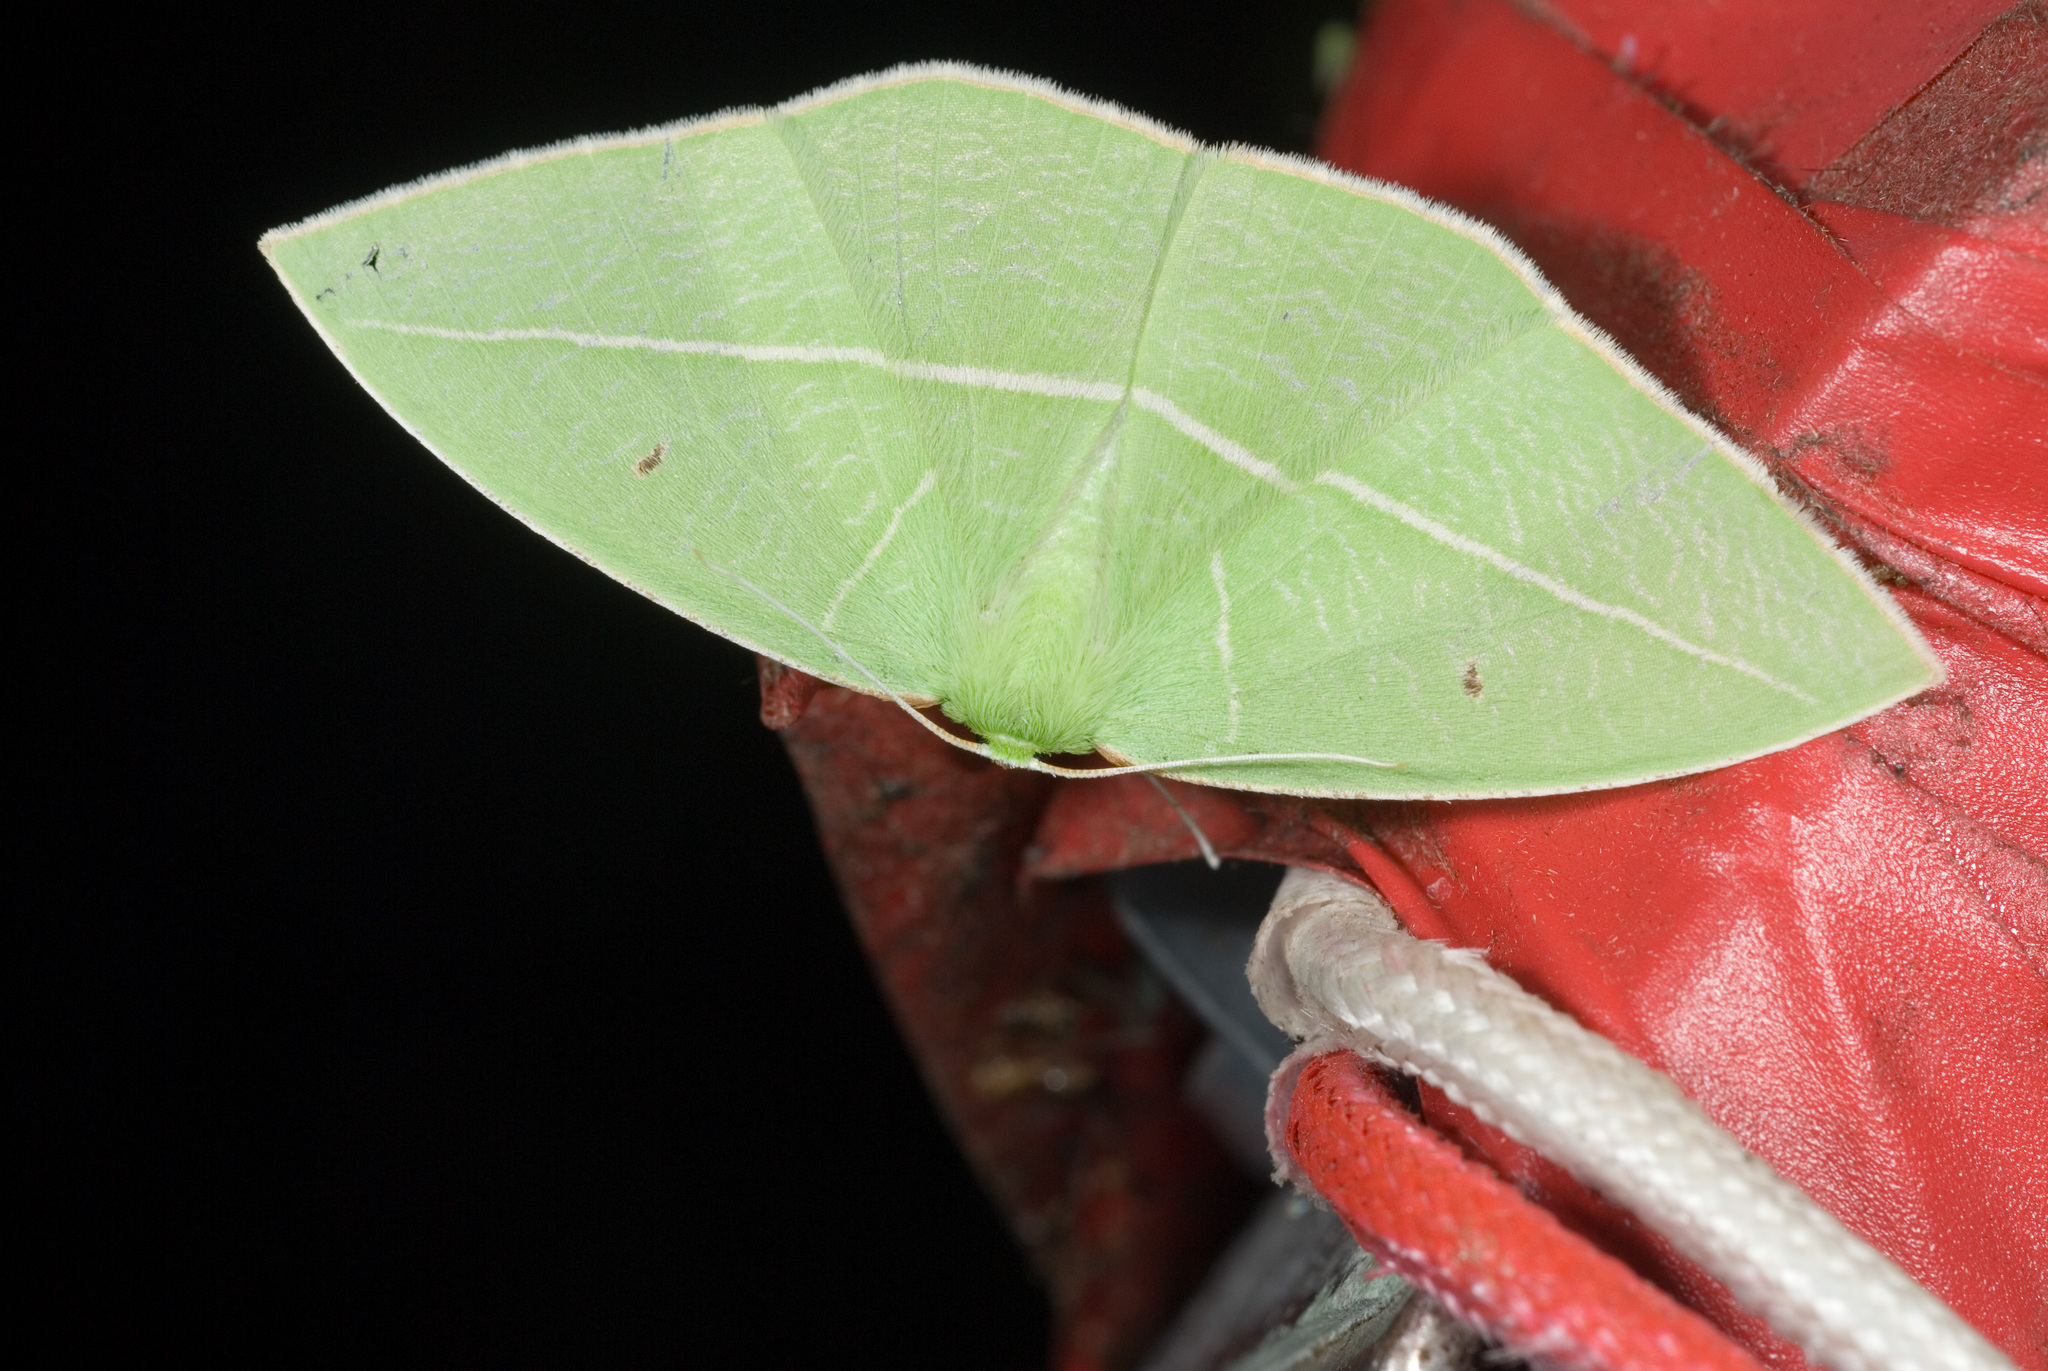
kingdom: Animalia
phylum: Arthropoda
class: Insecta
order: Lepidoptera
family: Geometridae
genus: Tanaoctenia
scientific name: Tanaoctenia haliaria
